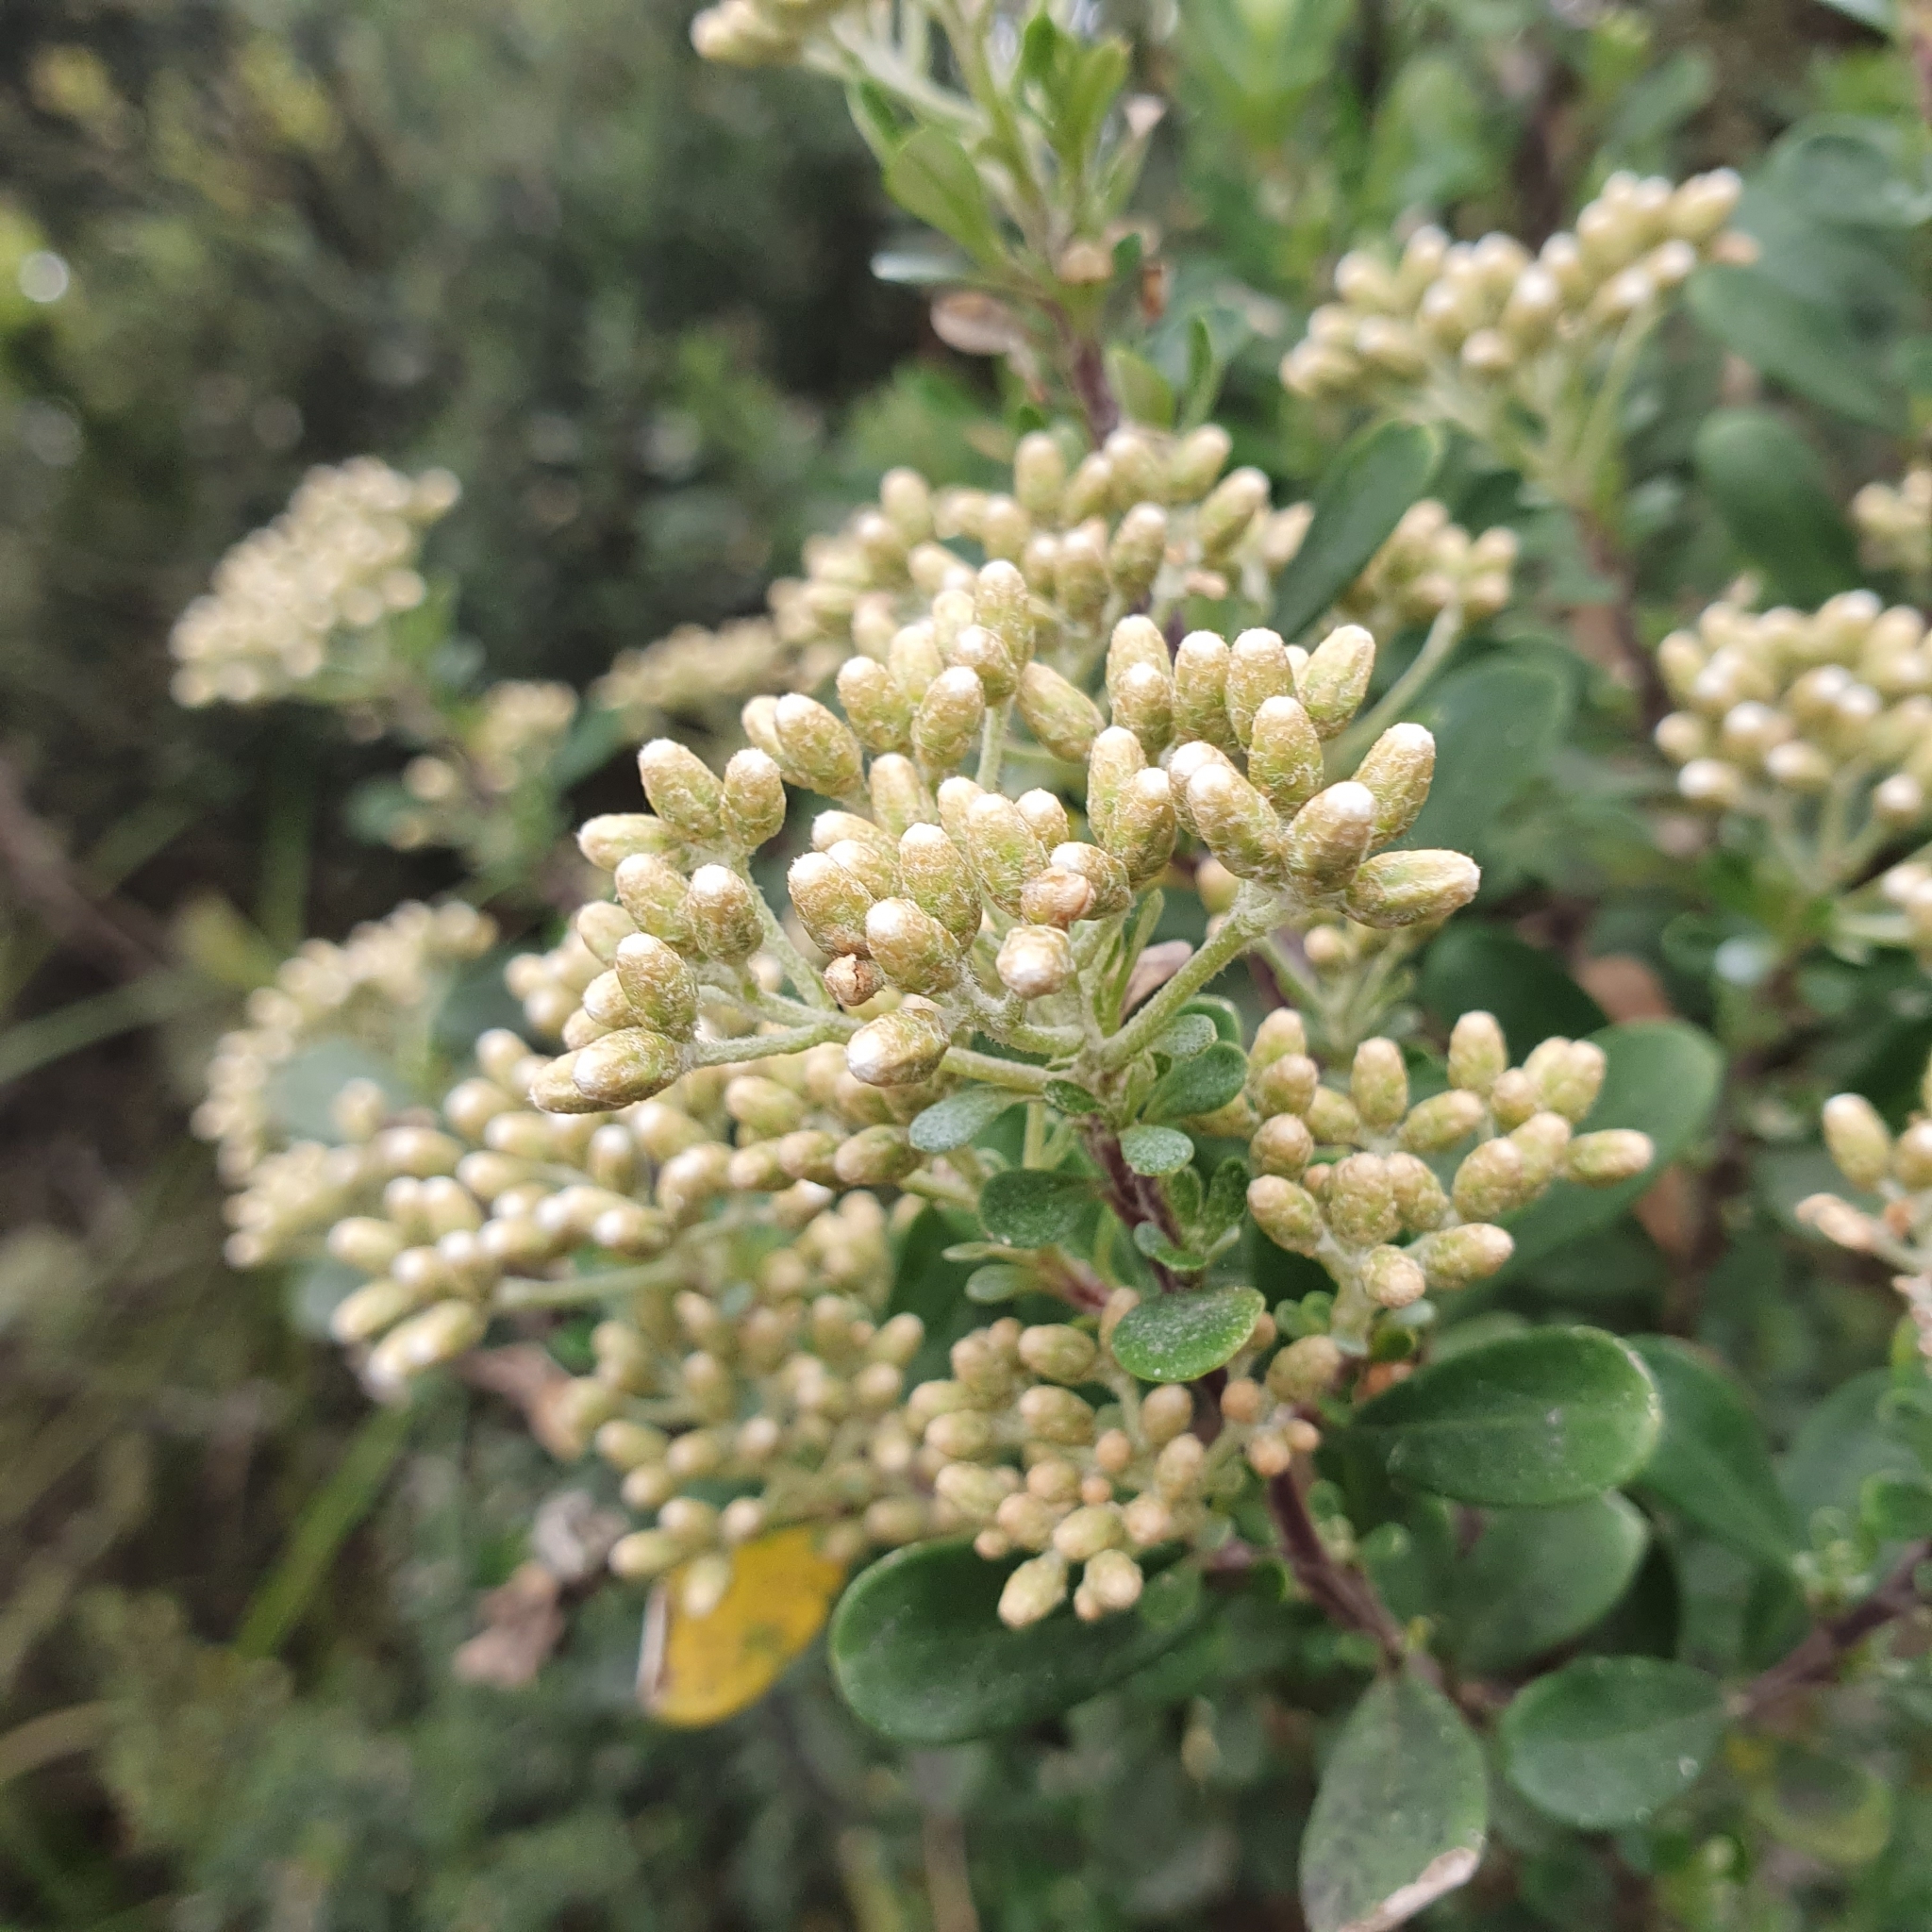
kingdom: Plantae
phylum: Tracheophyta
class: Magnoliopsida
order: Asterales
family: Asteraceae
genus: Ozothamnus
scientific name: Ozothamnus antennaria
